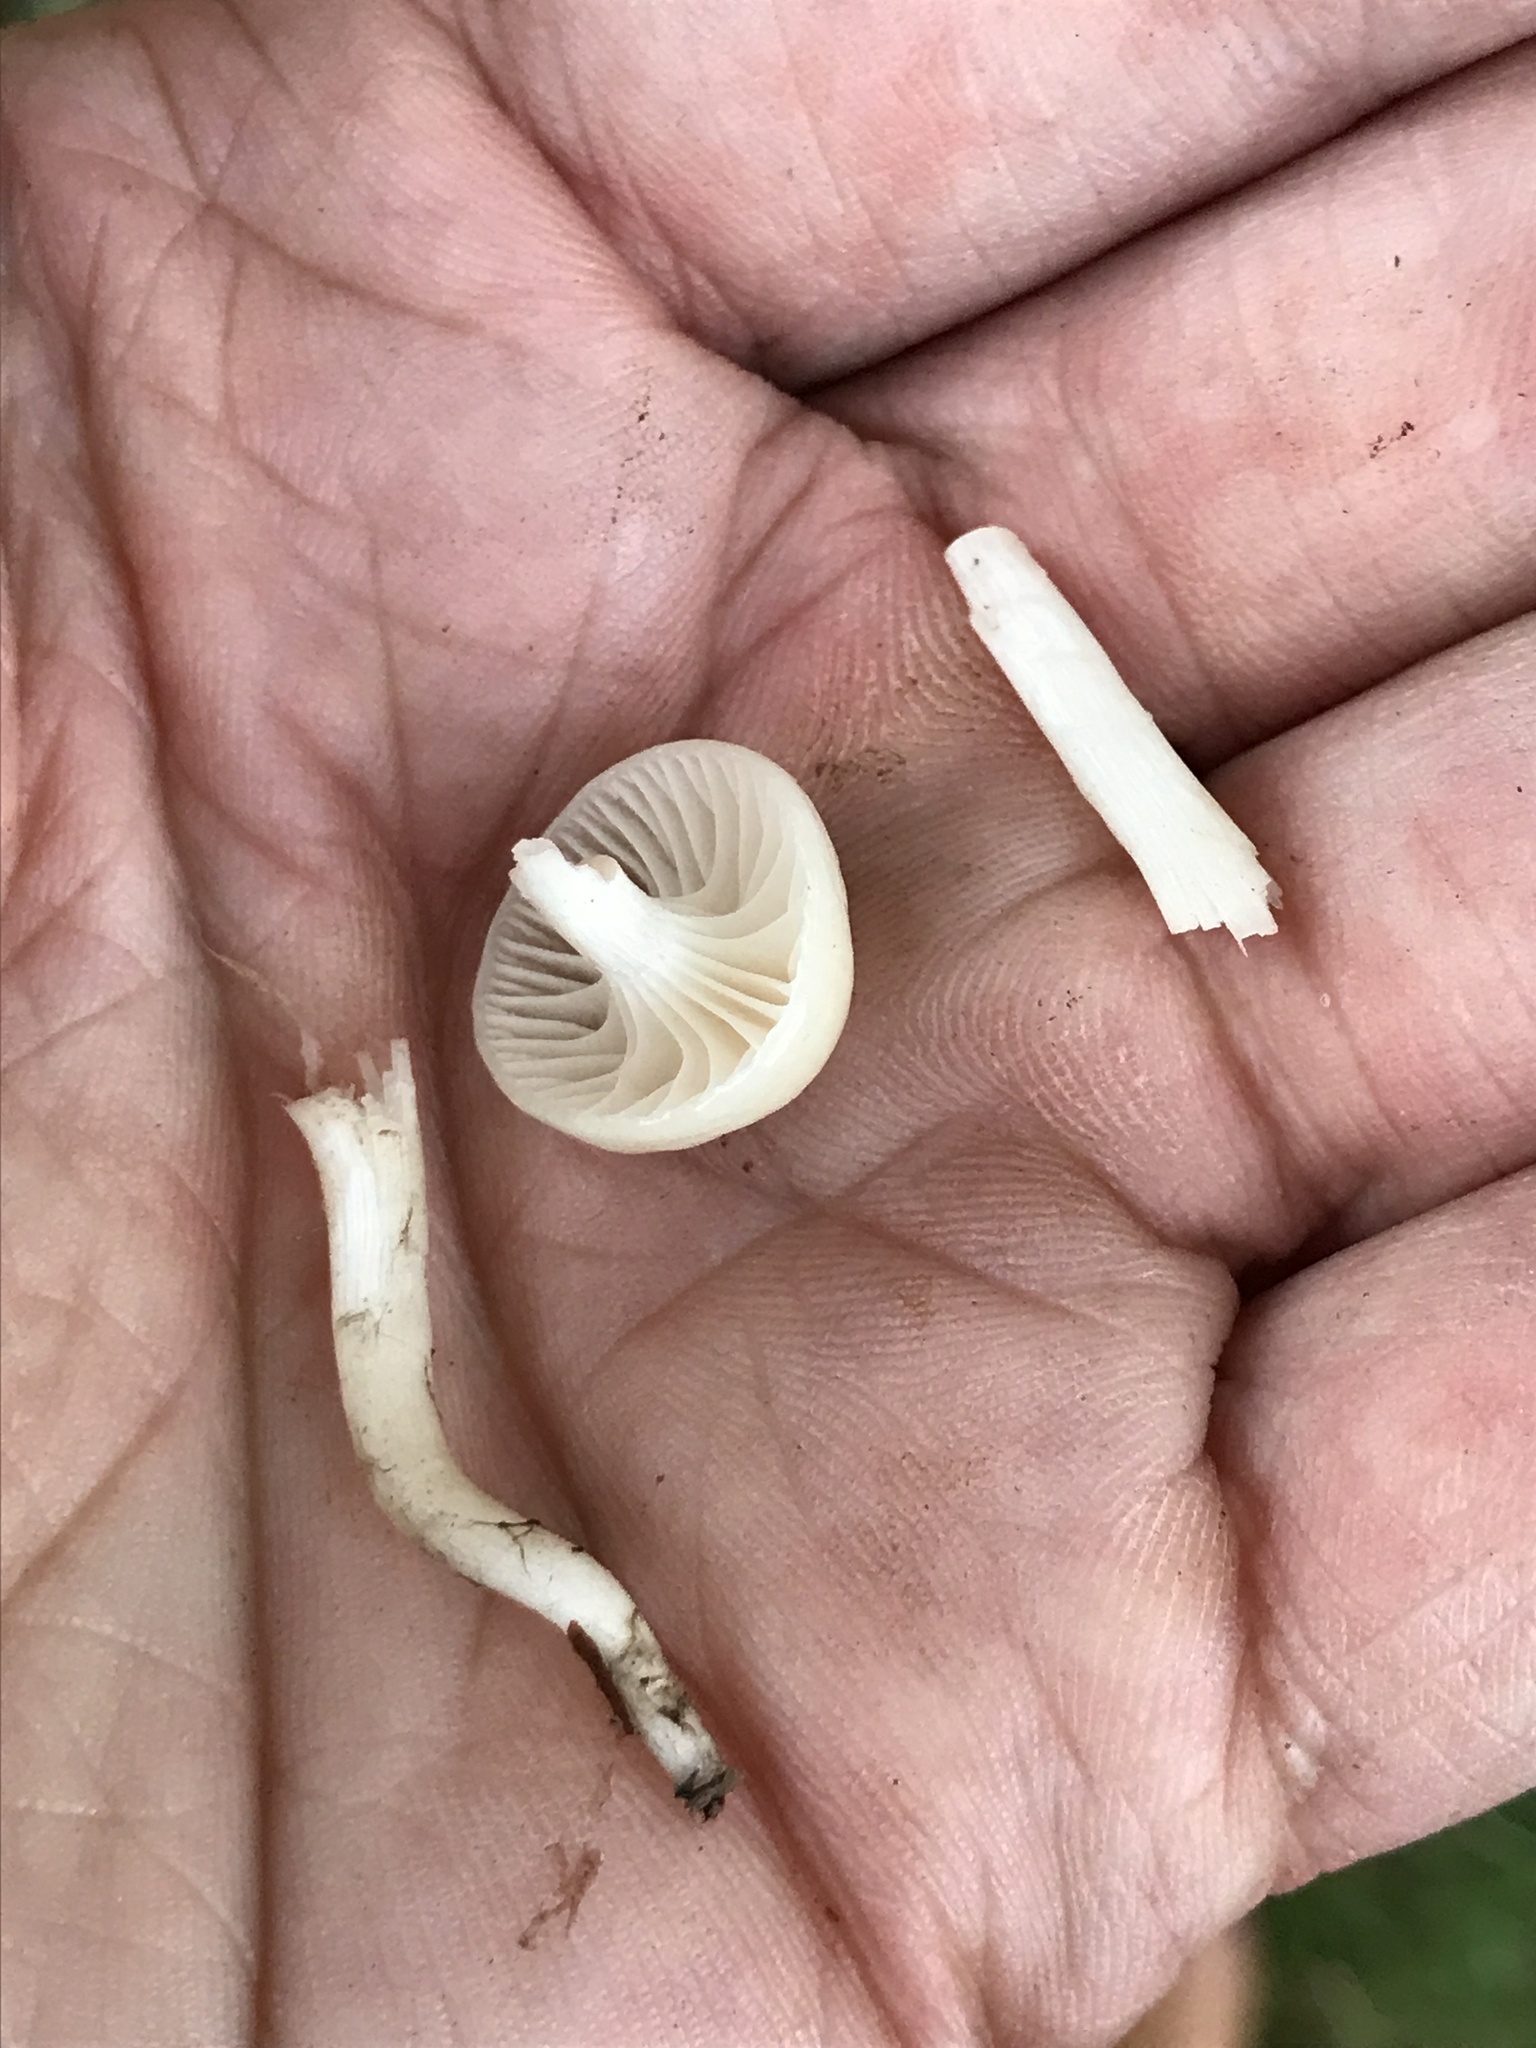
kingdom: Fungi
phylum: Basidiomycota
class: Agaricomycetes
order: Agaricales
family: Hygrophoraceae
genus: Cuphophyllus
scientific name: Cuphophyllus virgineus
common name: Snowy waxcap
